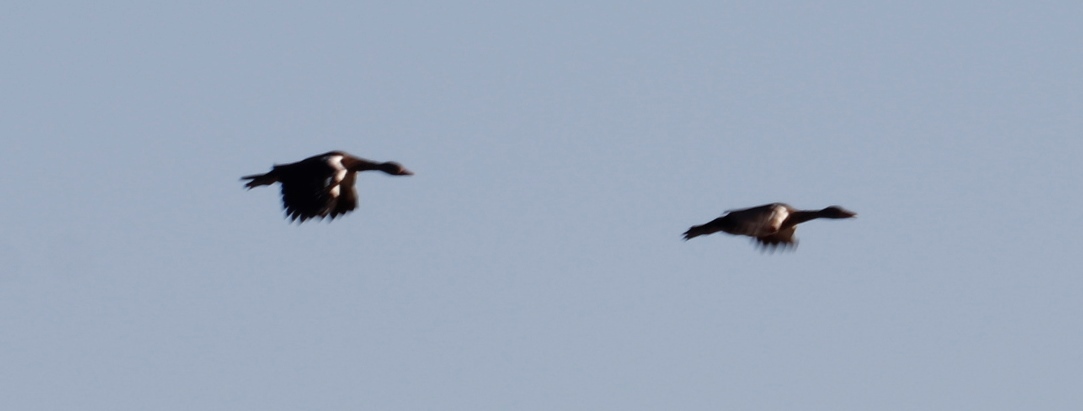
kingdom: Animalia
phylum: Chordata
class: Aves
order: Anseriformes
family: Anatidae
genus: Plectropterus
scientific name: Plectropterus gambensis
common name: Spur-winged goose
